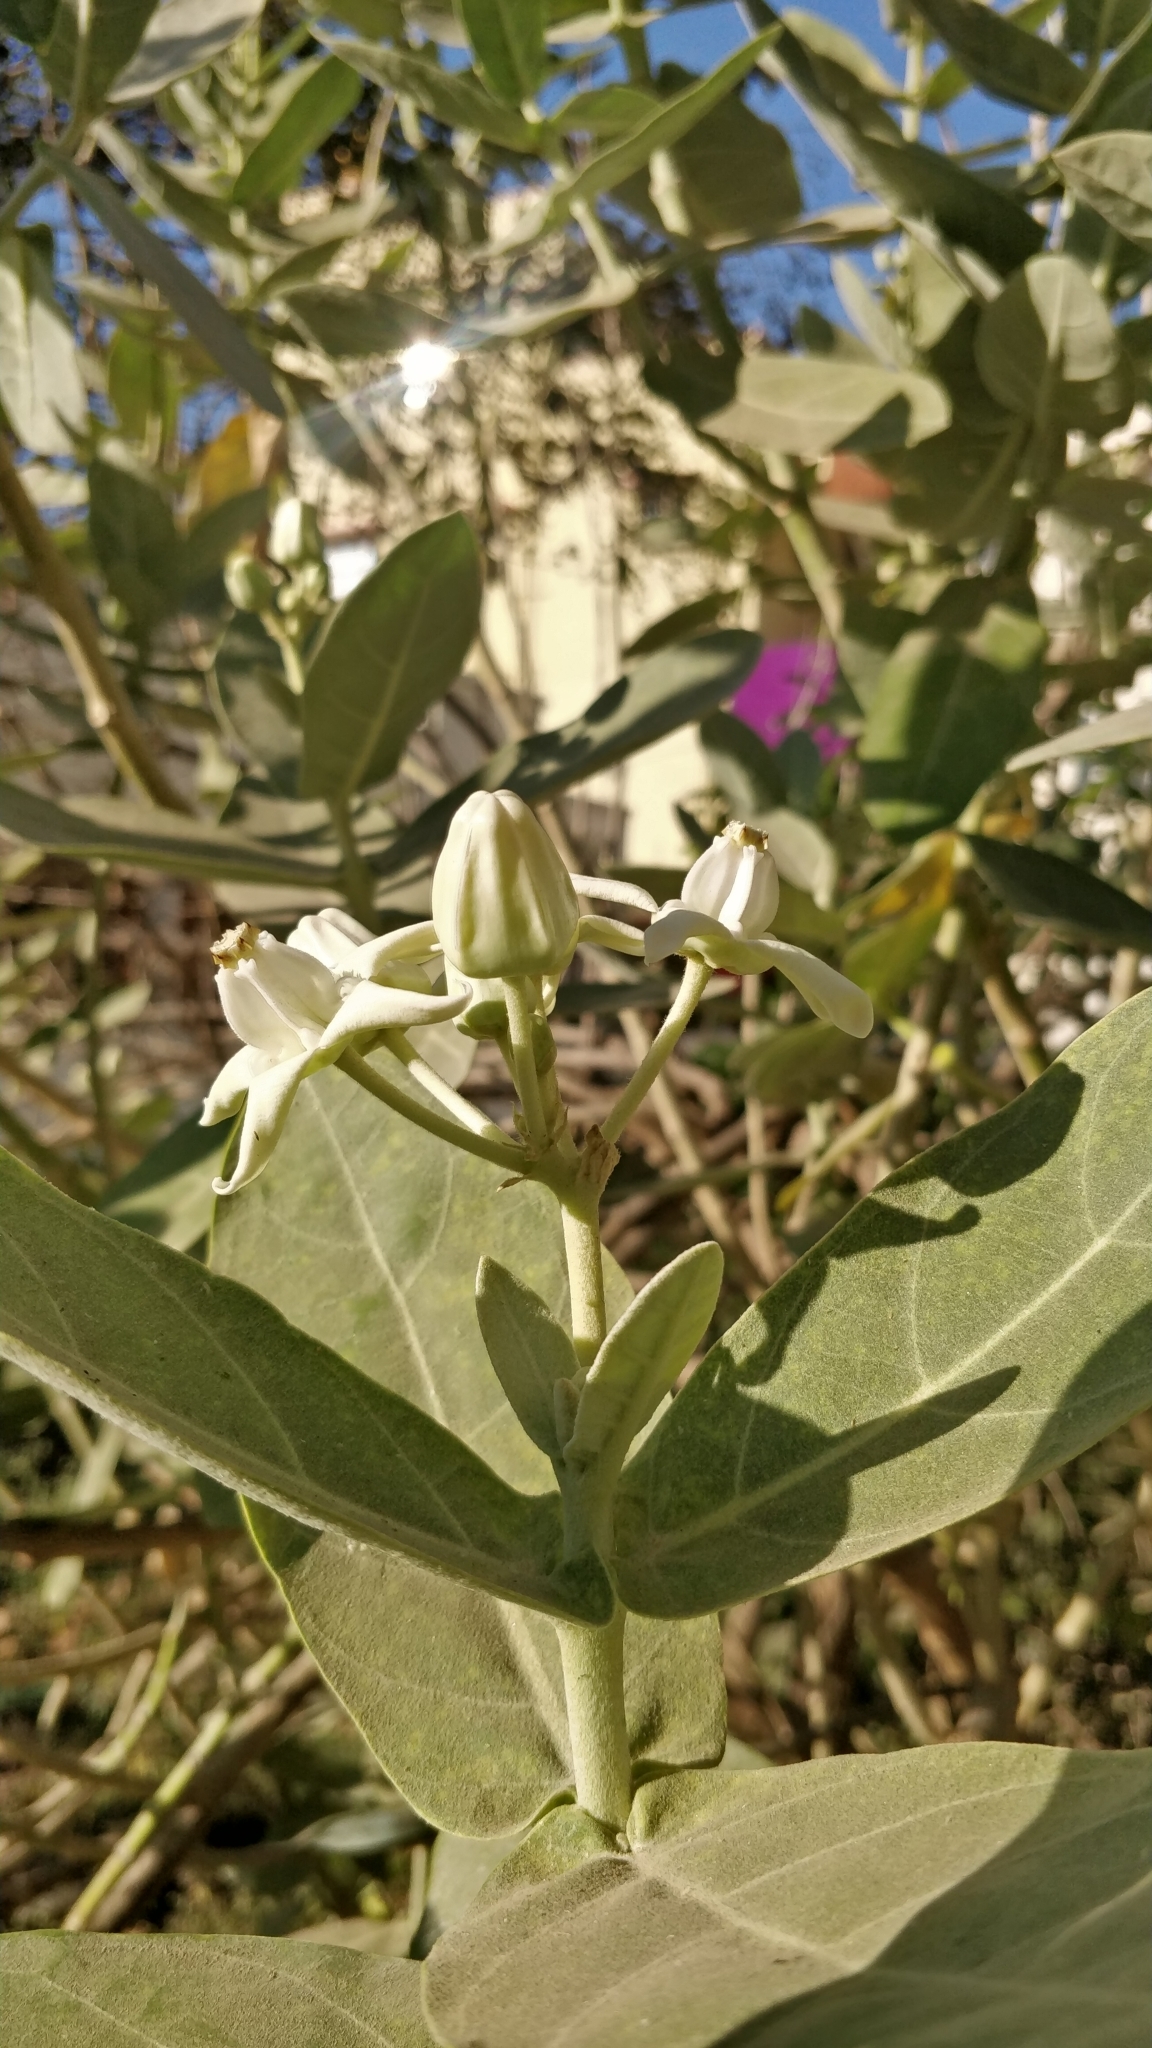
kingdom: Plantae
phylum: Tracheophyta
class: Magnoliopsida
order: Gentianales
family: Apocynaceae
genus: Calotropis
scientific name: Calotropis gigantea
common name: Crown flower
